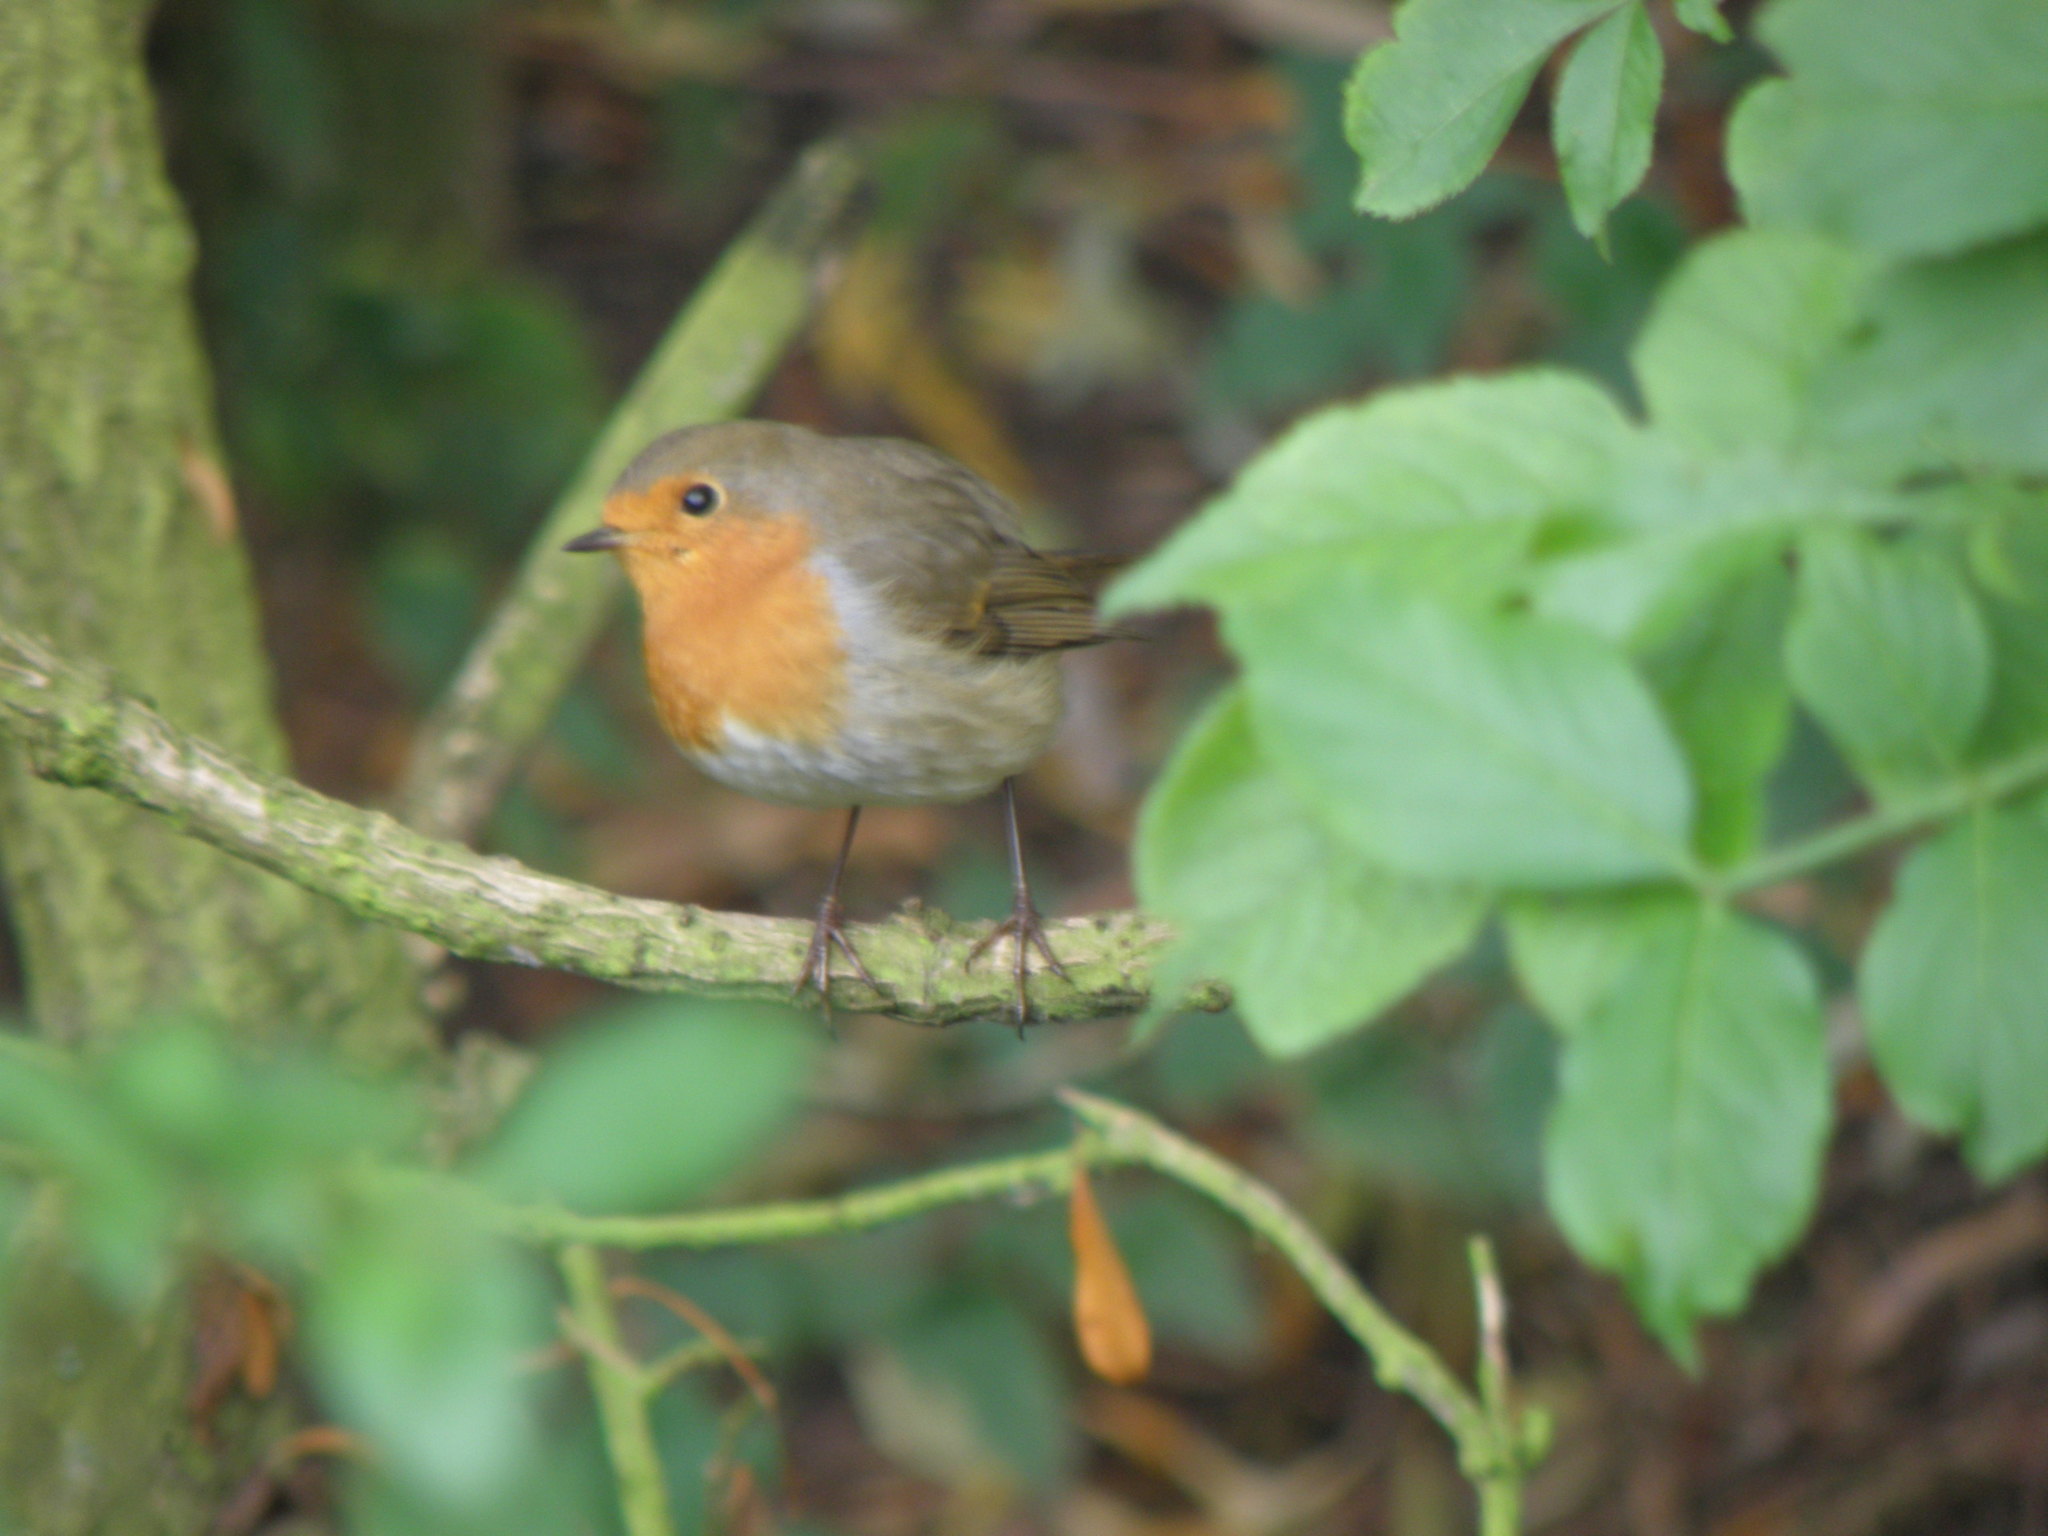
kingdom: Animalia
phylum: Chordata
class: Aves
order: Passeriformes
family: Muscicapidae
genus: Erithacus
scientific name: Erithacus rubecula
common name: European robin
